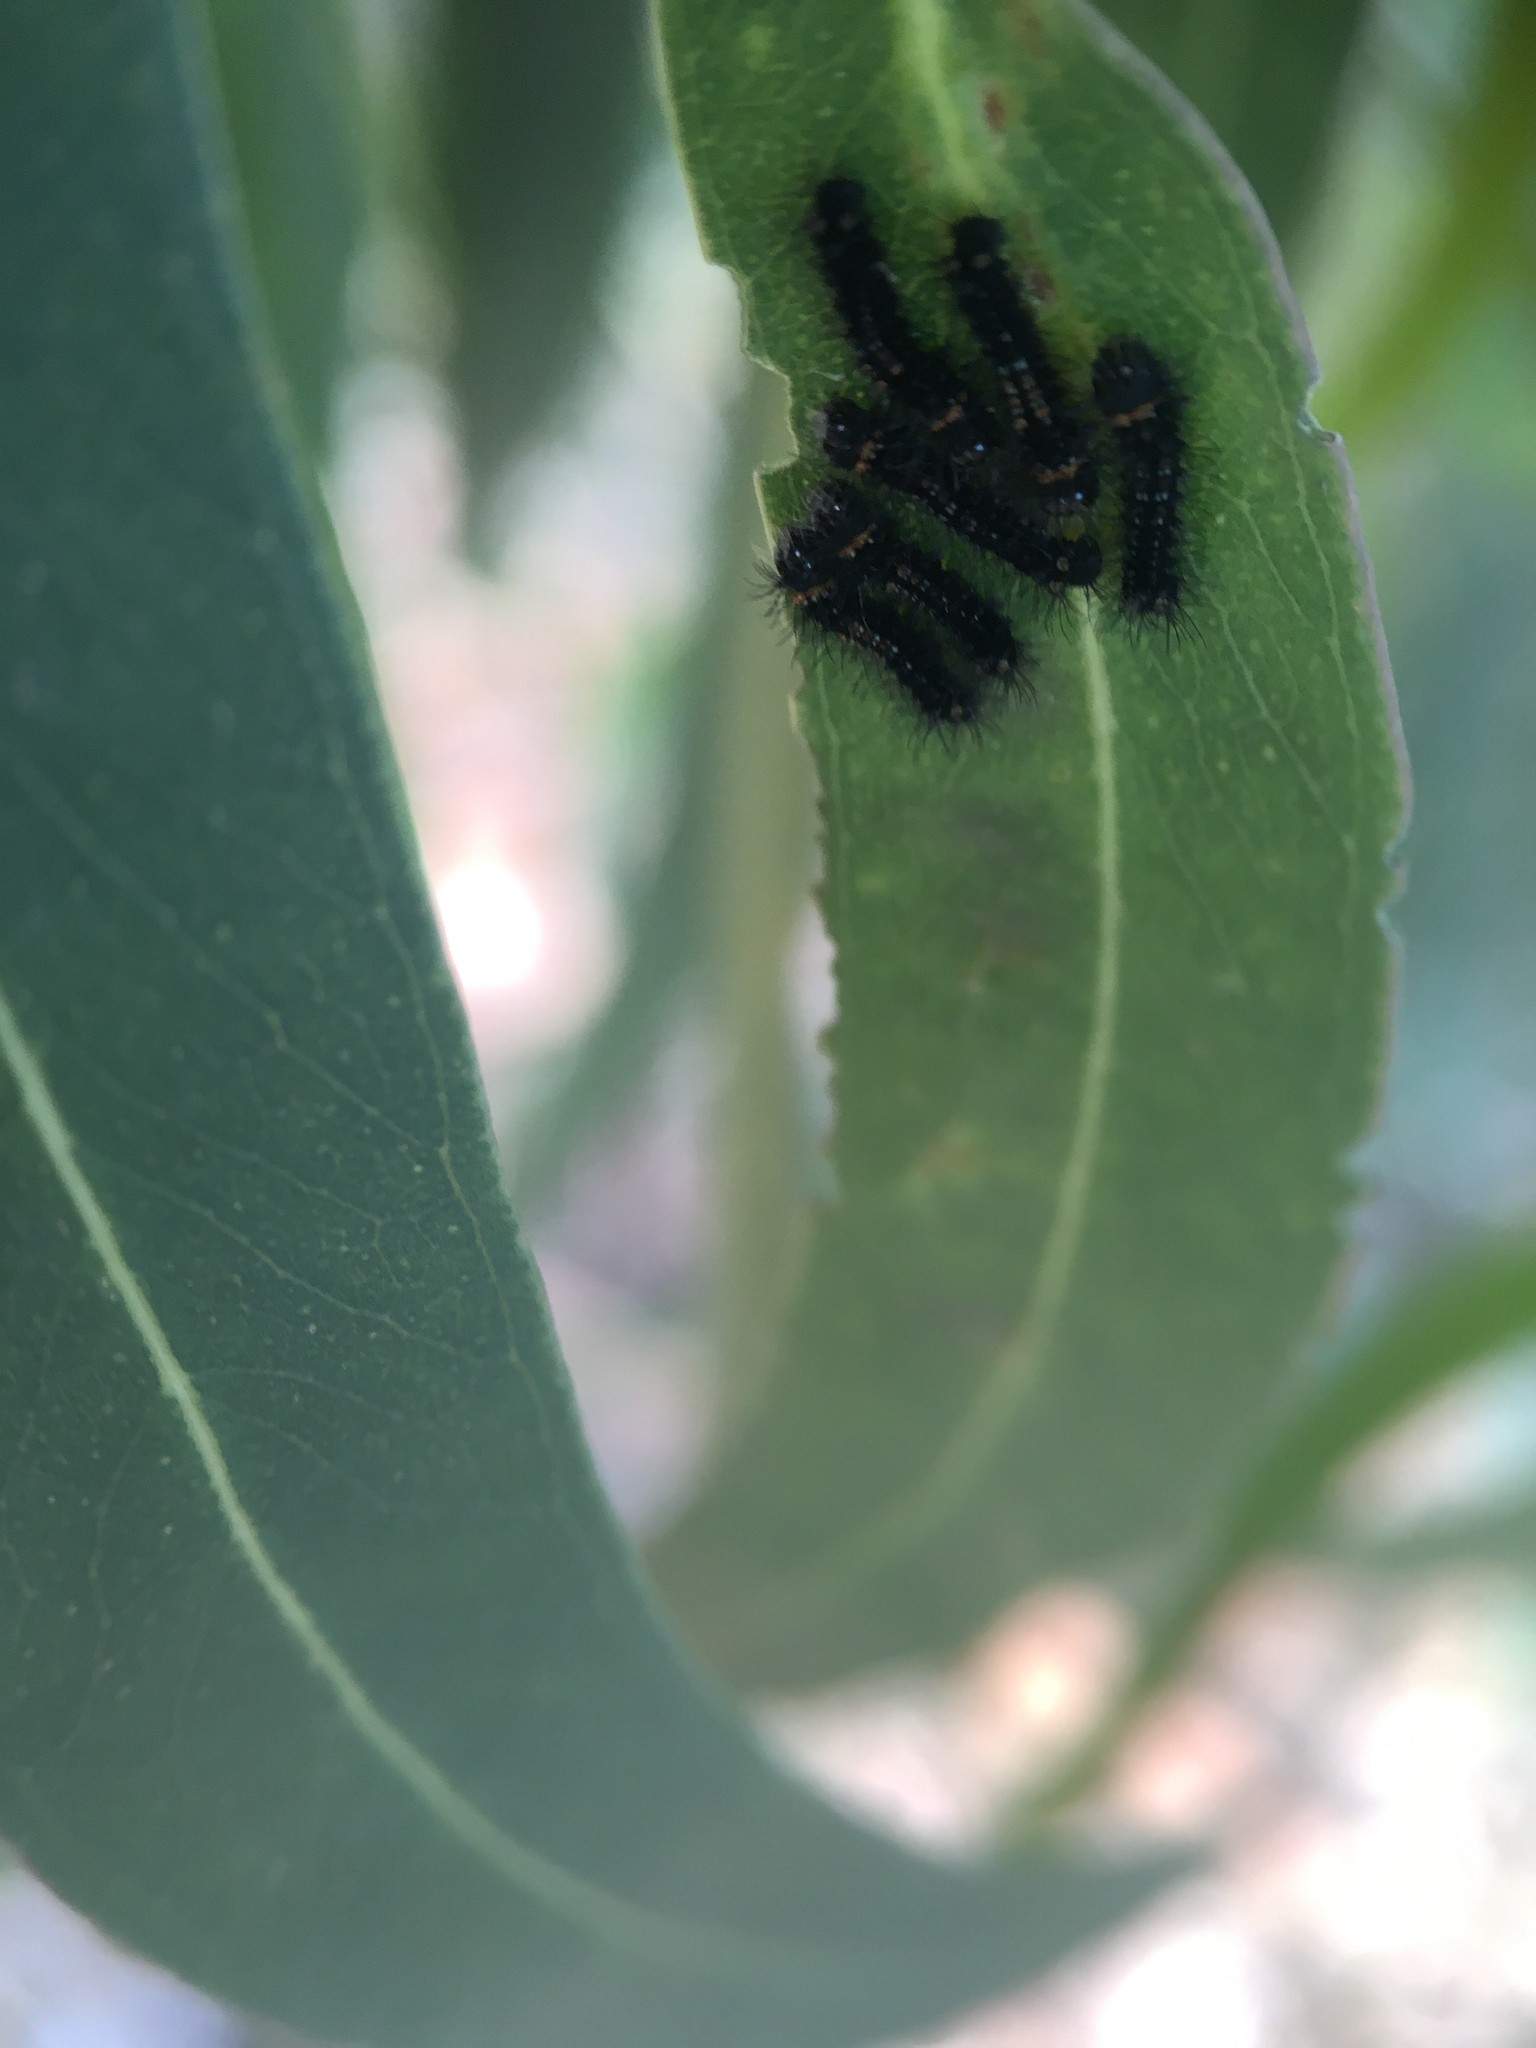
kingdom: Animalia
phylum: Arthropoda
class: Insecta
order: Lepidoptera
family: Saturniidae
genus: Opodiphthera
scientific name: Opodiphthera
